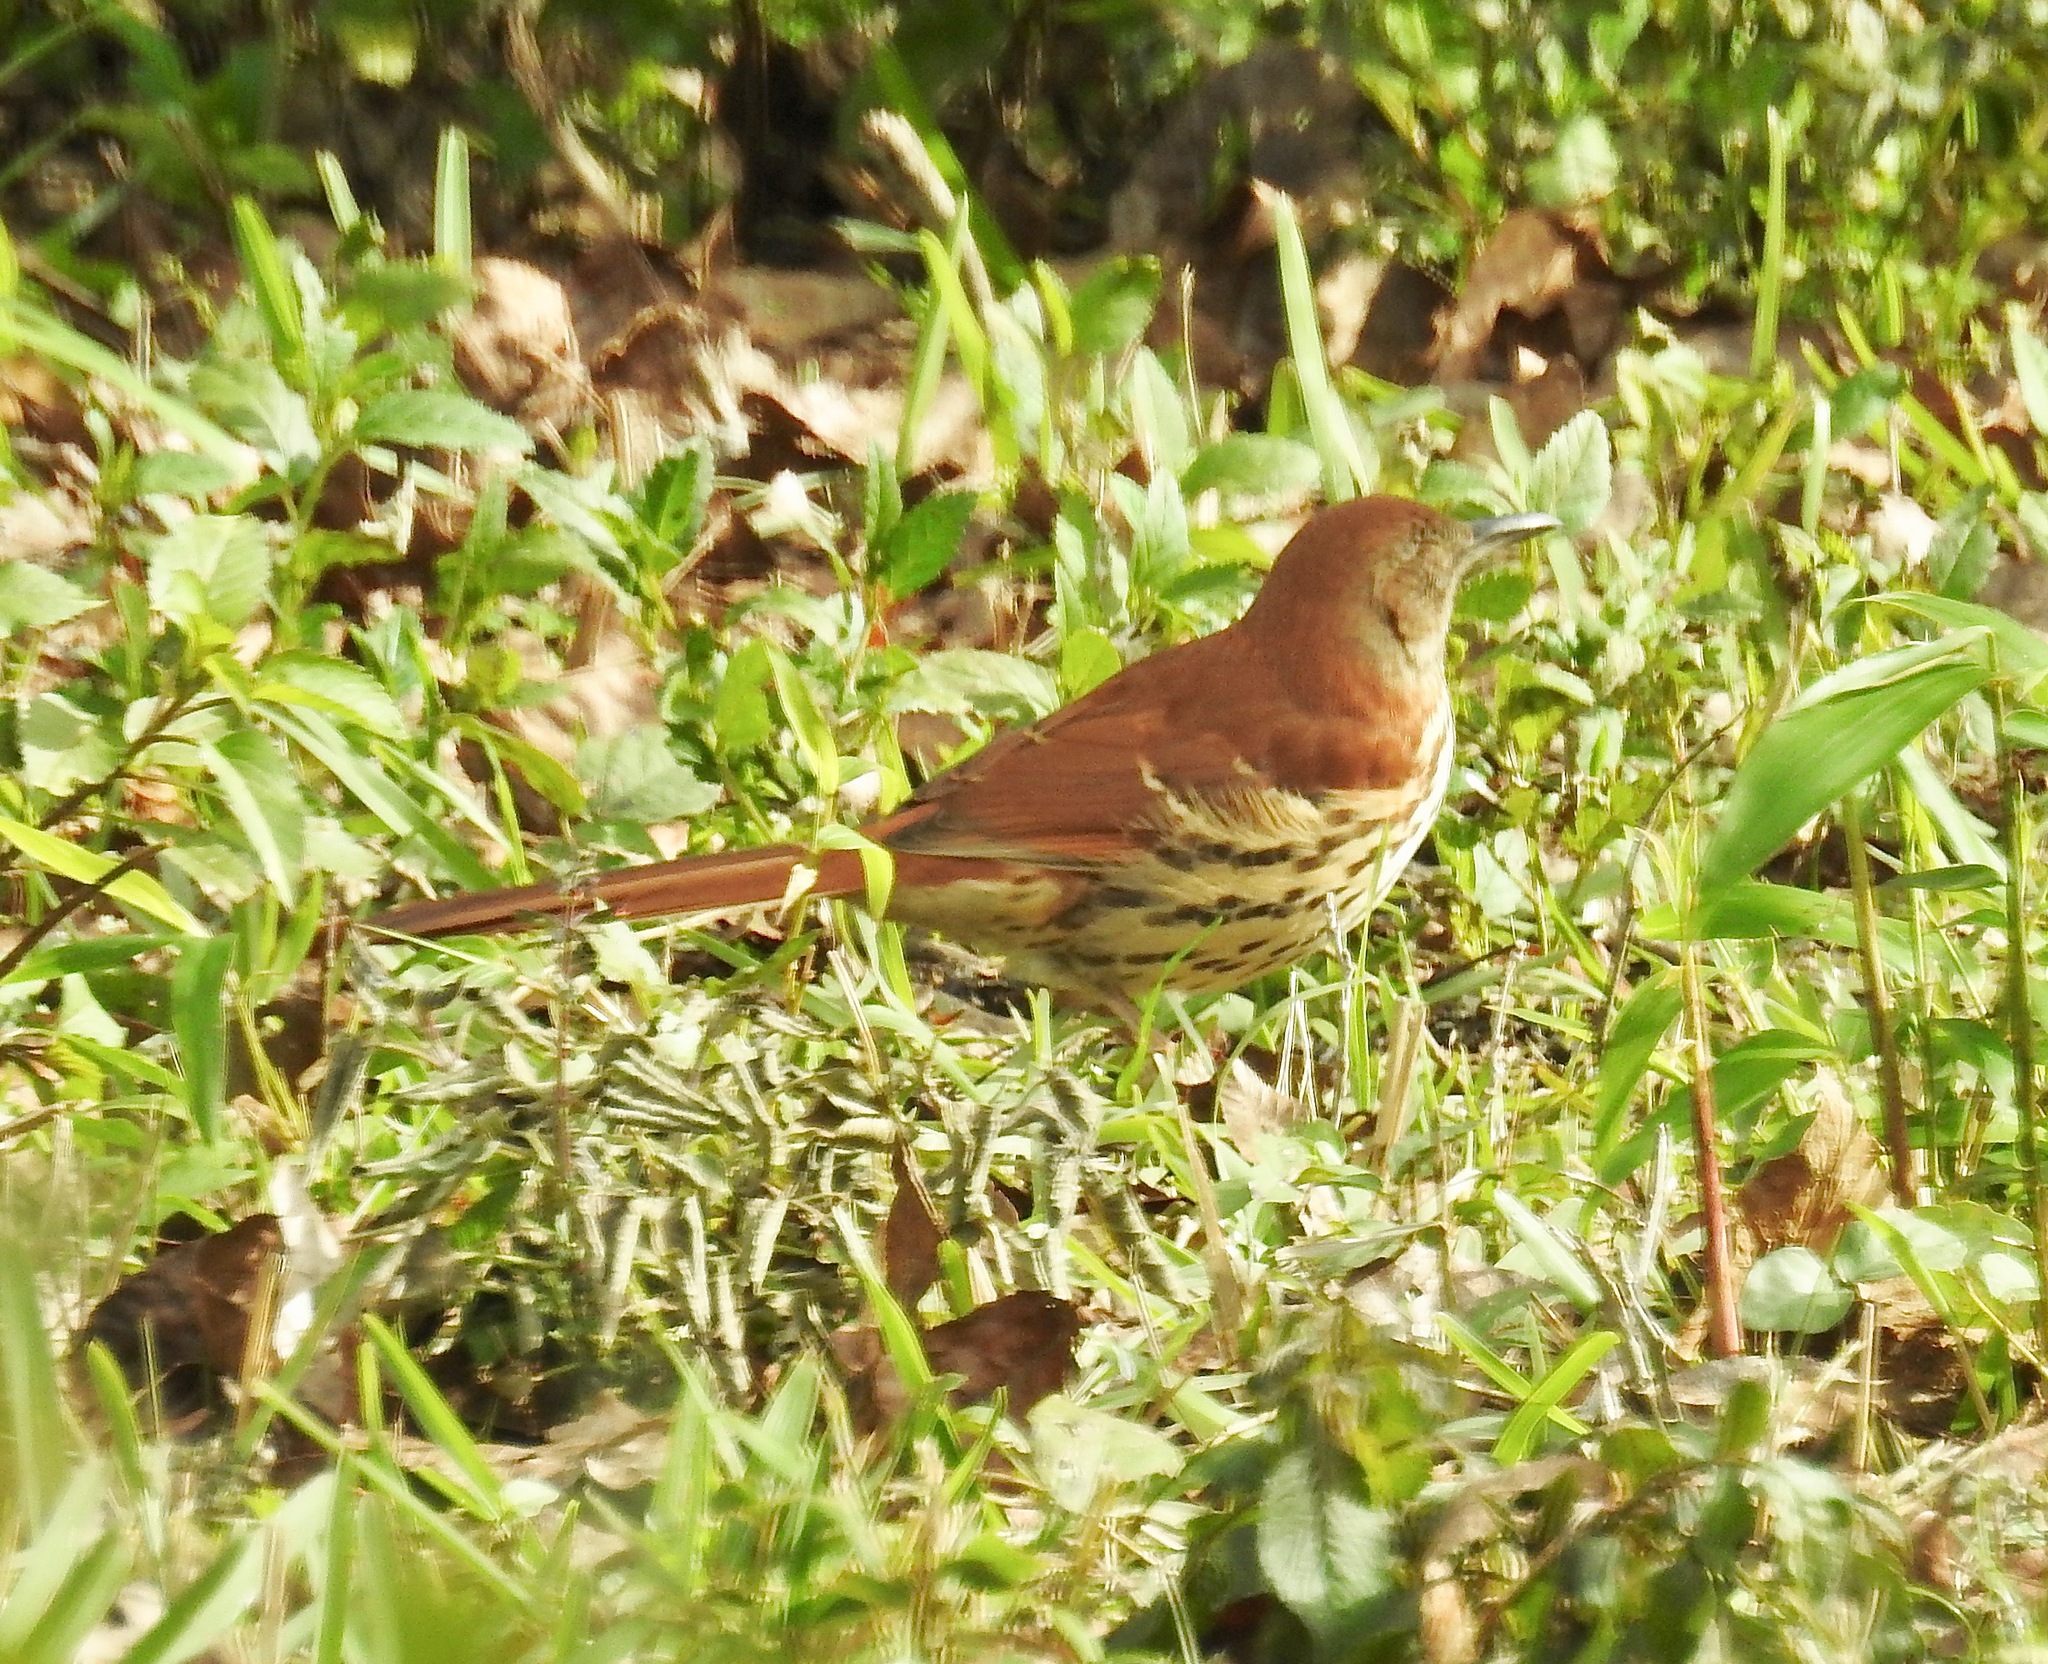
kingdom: Animalia
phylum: Chordata
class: Aves
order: Passeriformes
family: Mimidae
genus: Toxostoma
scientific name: Toxostoma rufum
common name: Brown thrasher
